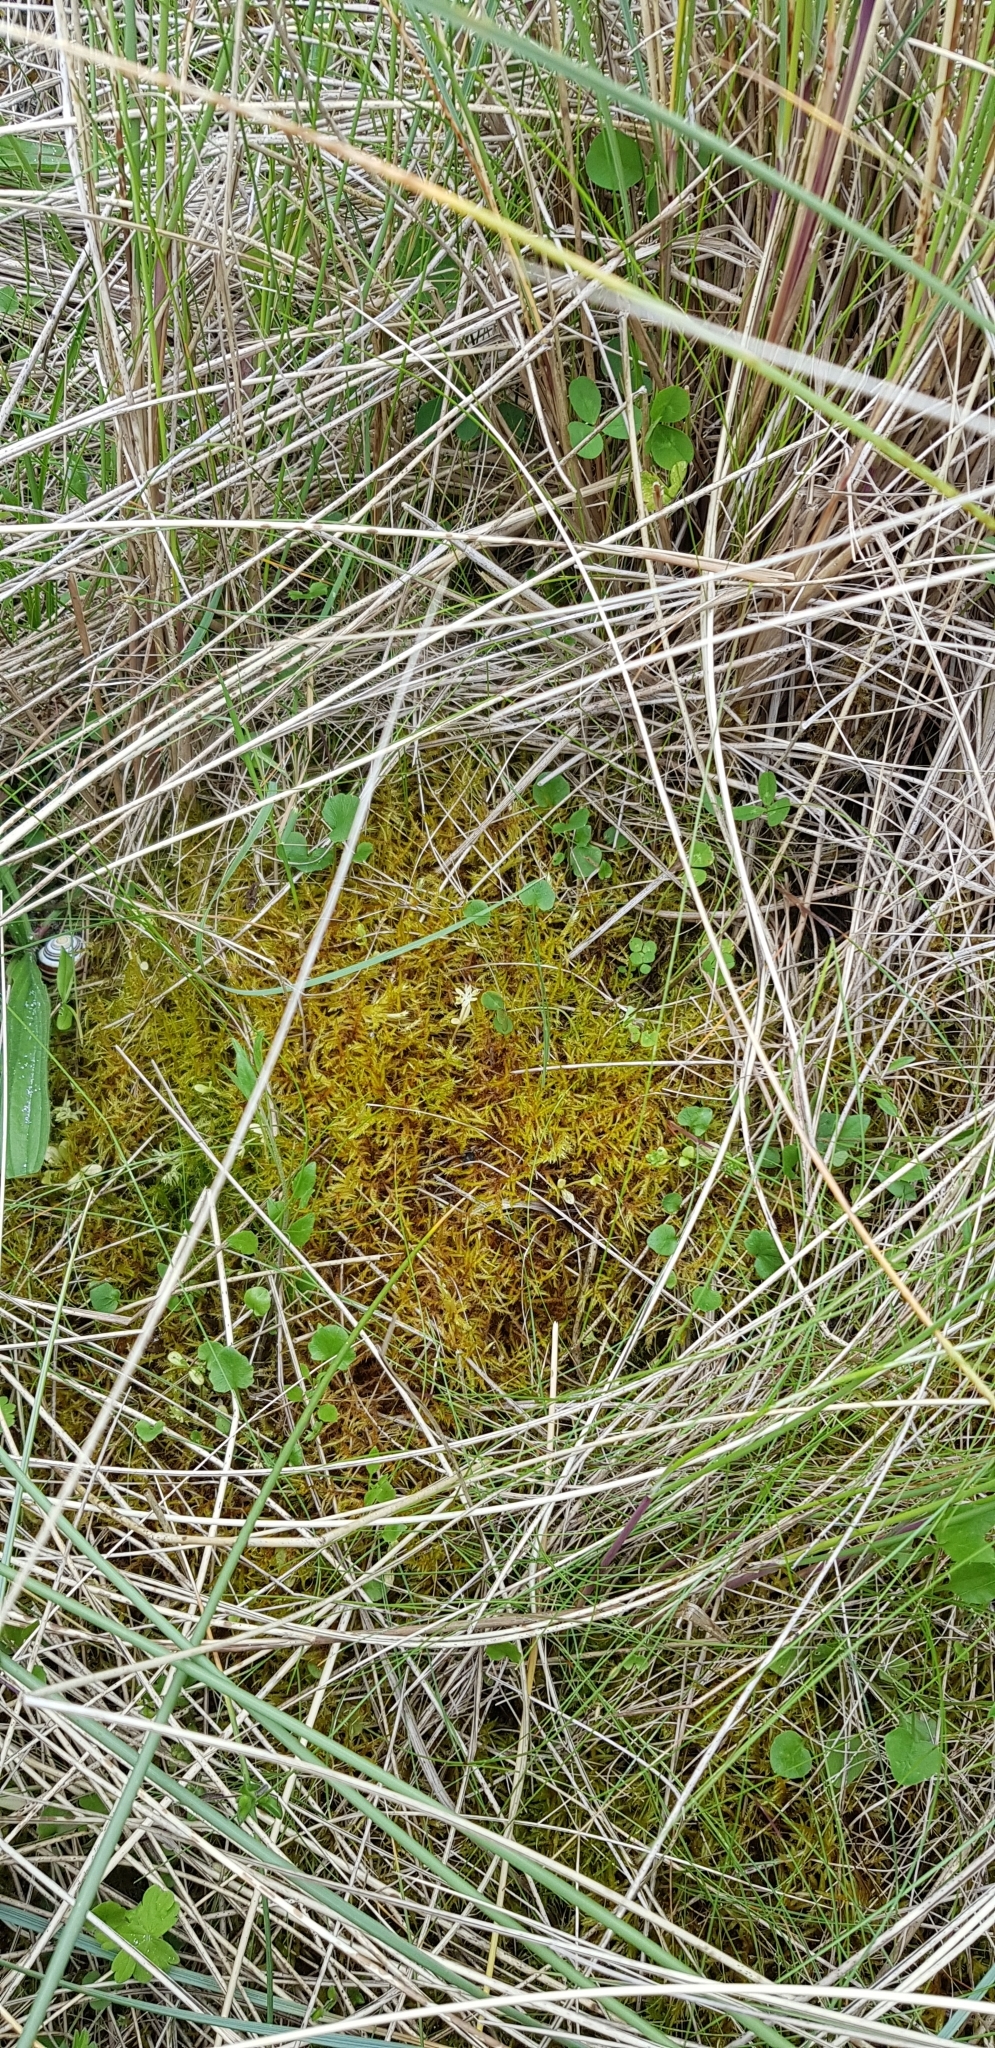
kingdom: Plantae
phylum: Bryophyta
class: Bryopsida
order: Hypnales
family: Pylaisiaceae
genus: Calliergonella
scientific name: Calliergonella cuspidata
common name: Common large wetland moss
